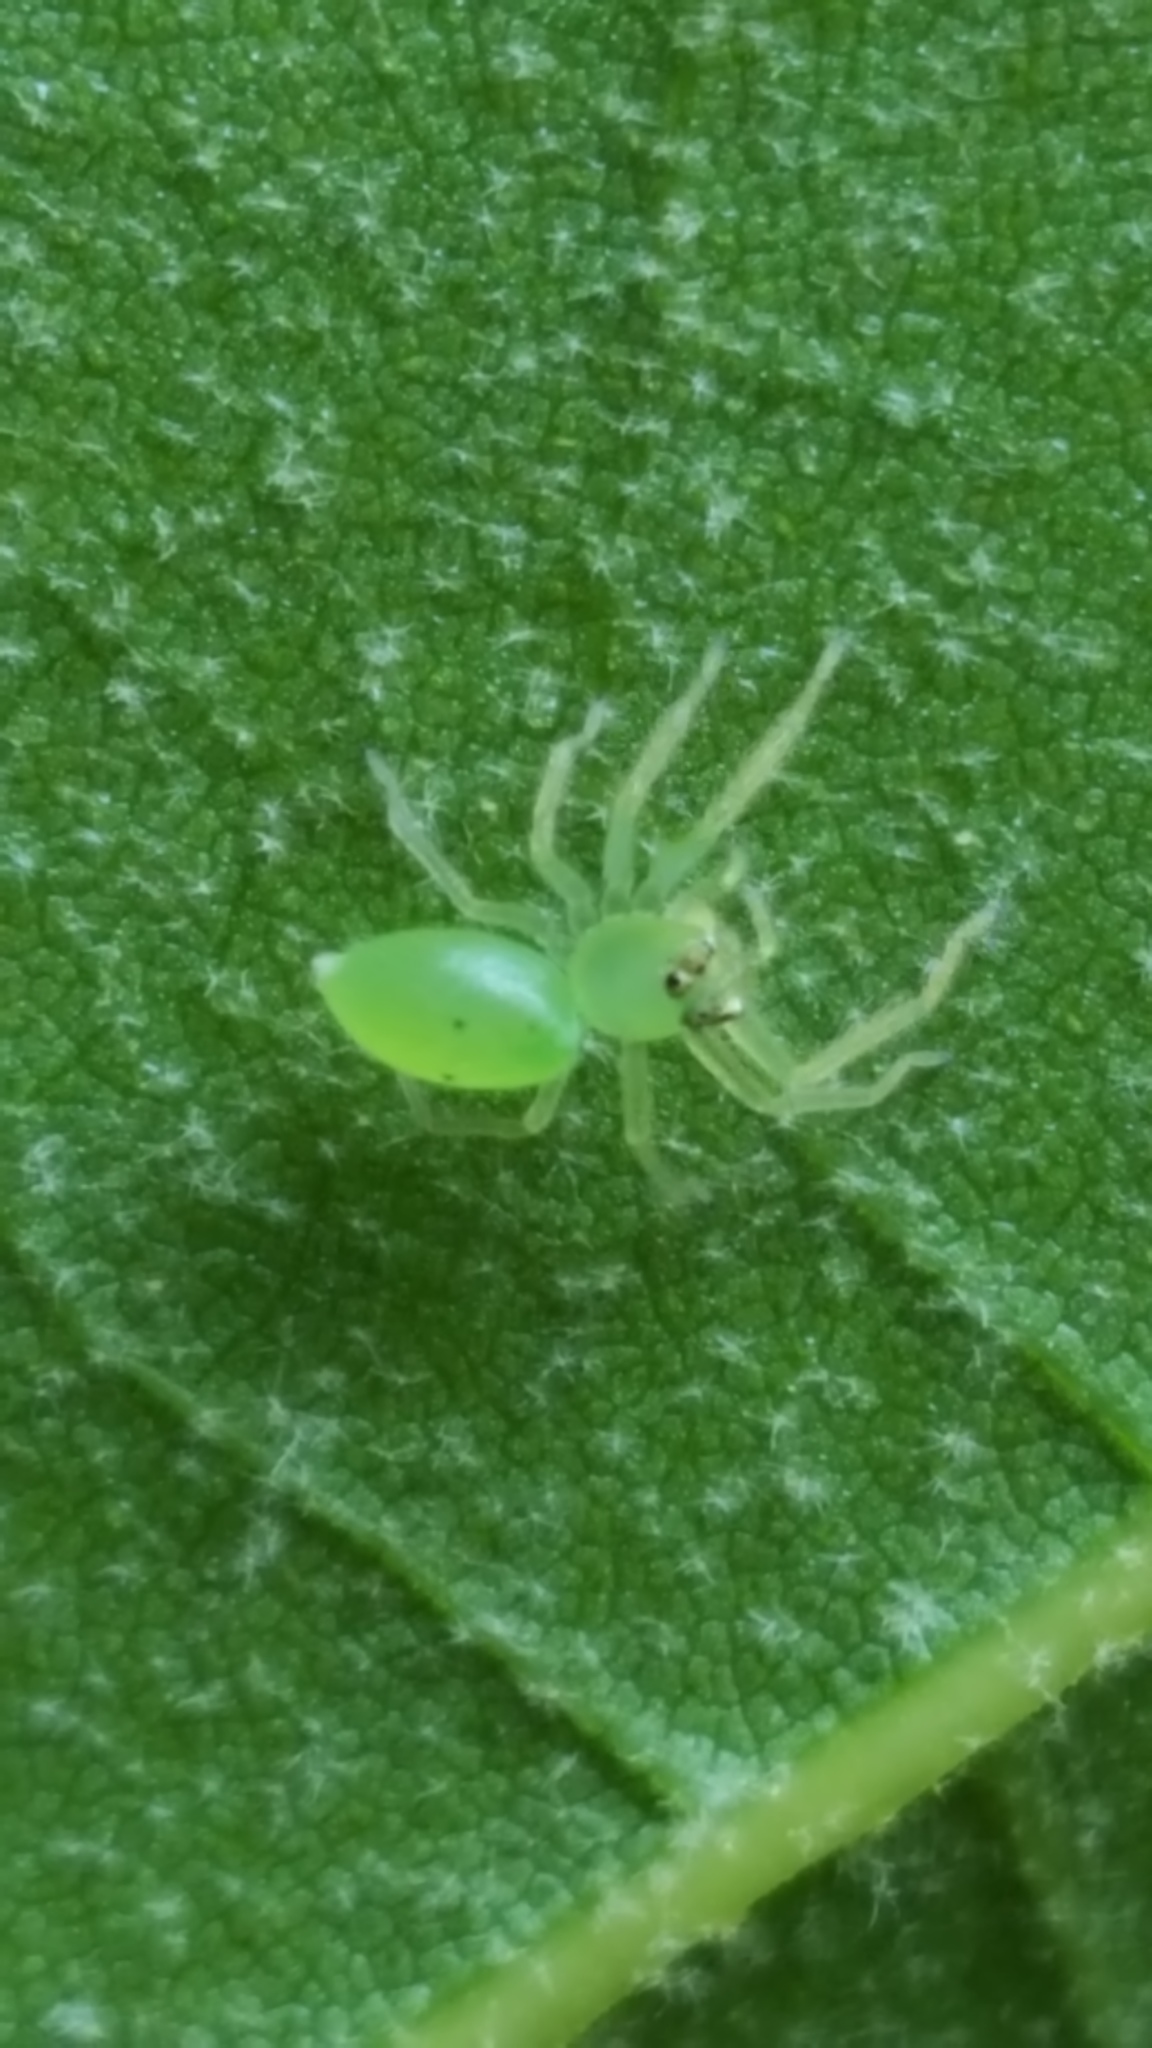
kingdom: Animalia
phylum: Arthropoda
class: Arachnida
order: Araneae
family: Salticidae
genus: Lyssomanes
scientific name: Lyssomanes viridis
